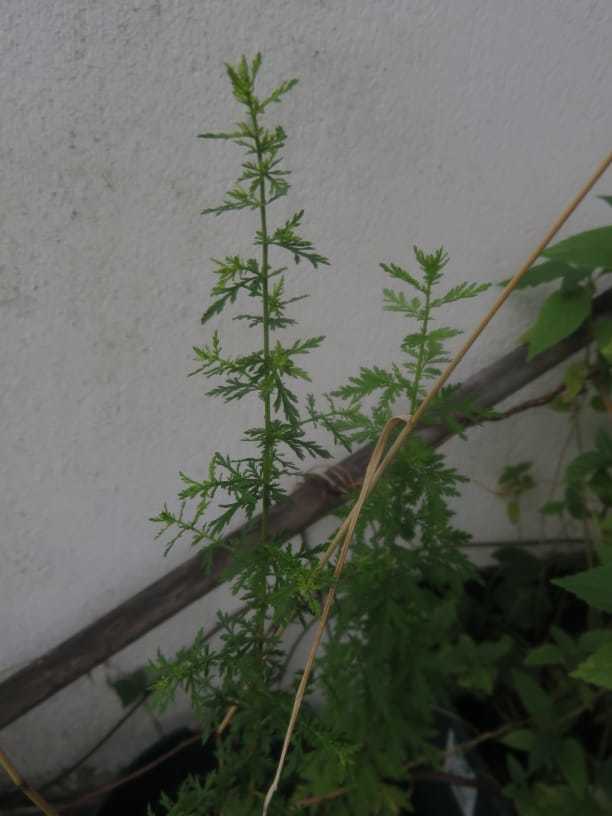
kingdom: Plantae
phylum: Tracheophyta
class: Magnoliopsida
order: Asterales
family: Asteraceae
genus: Artemisia
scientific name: Artemisia annua
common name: Sweet sagewort
